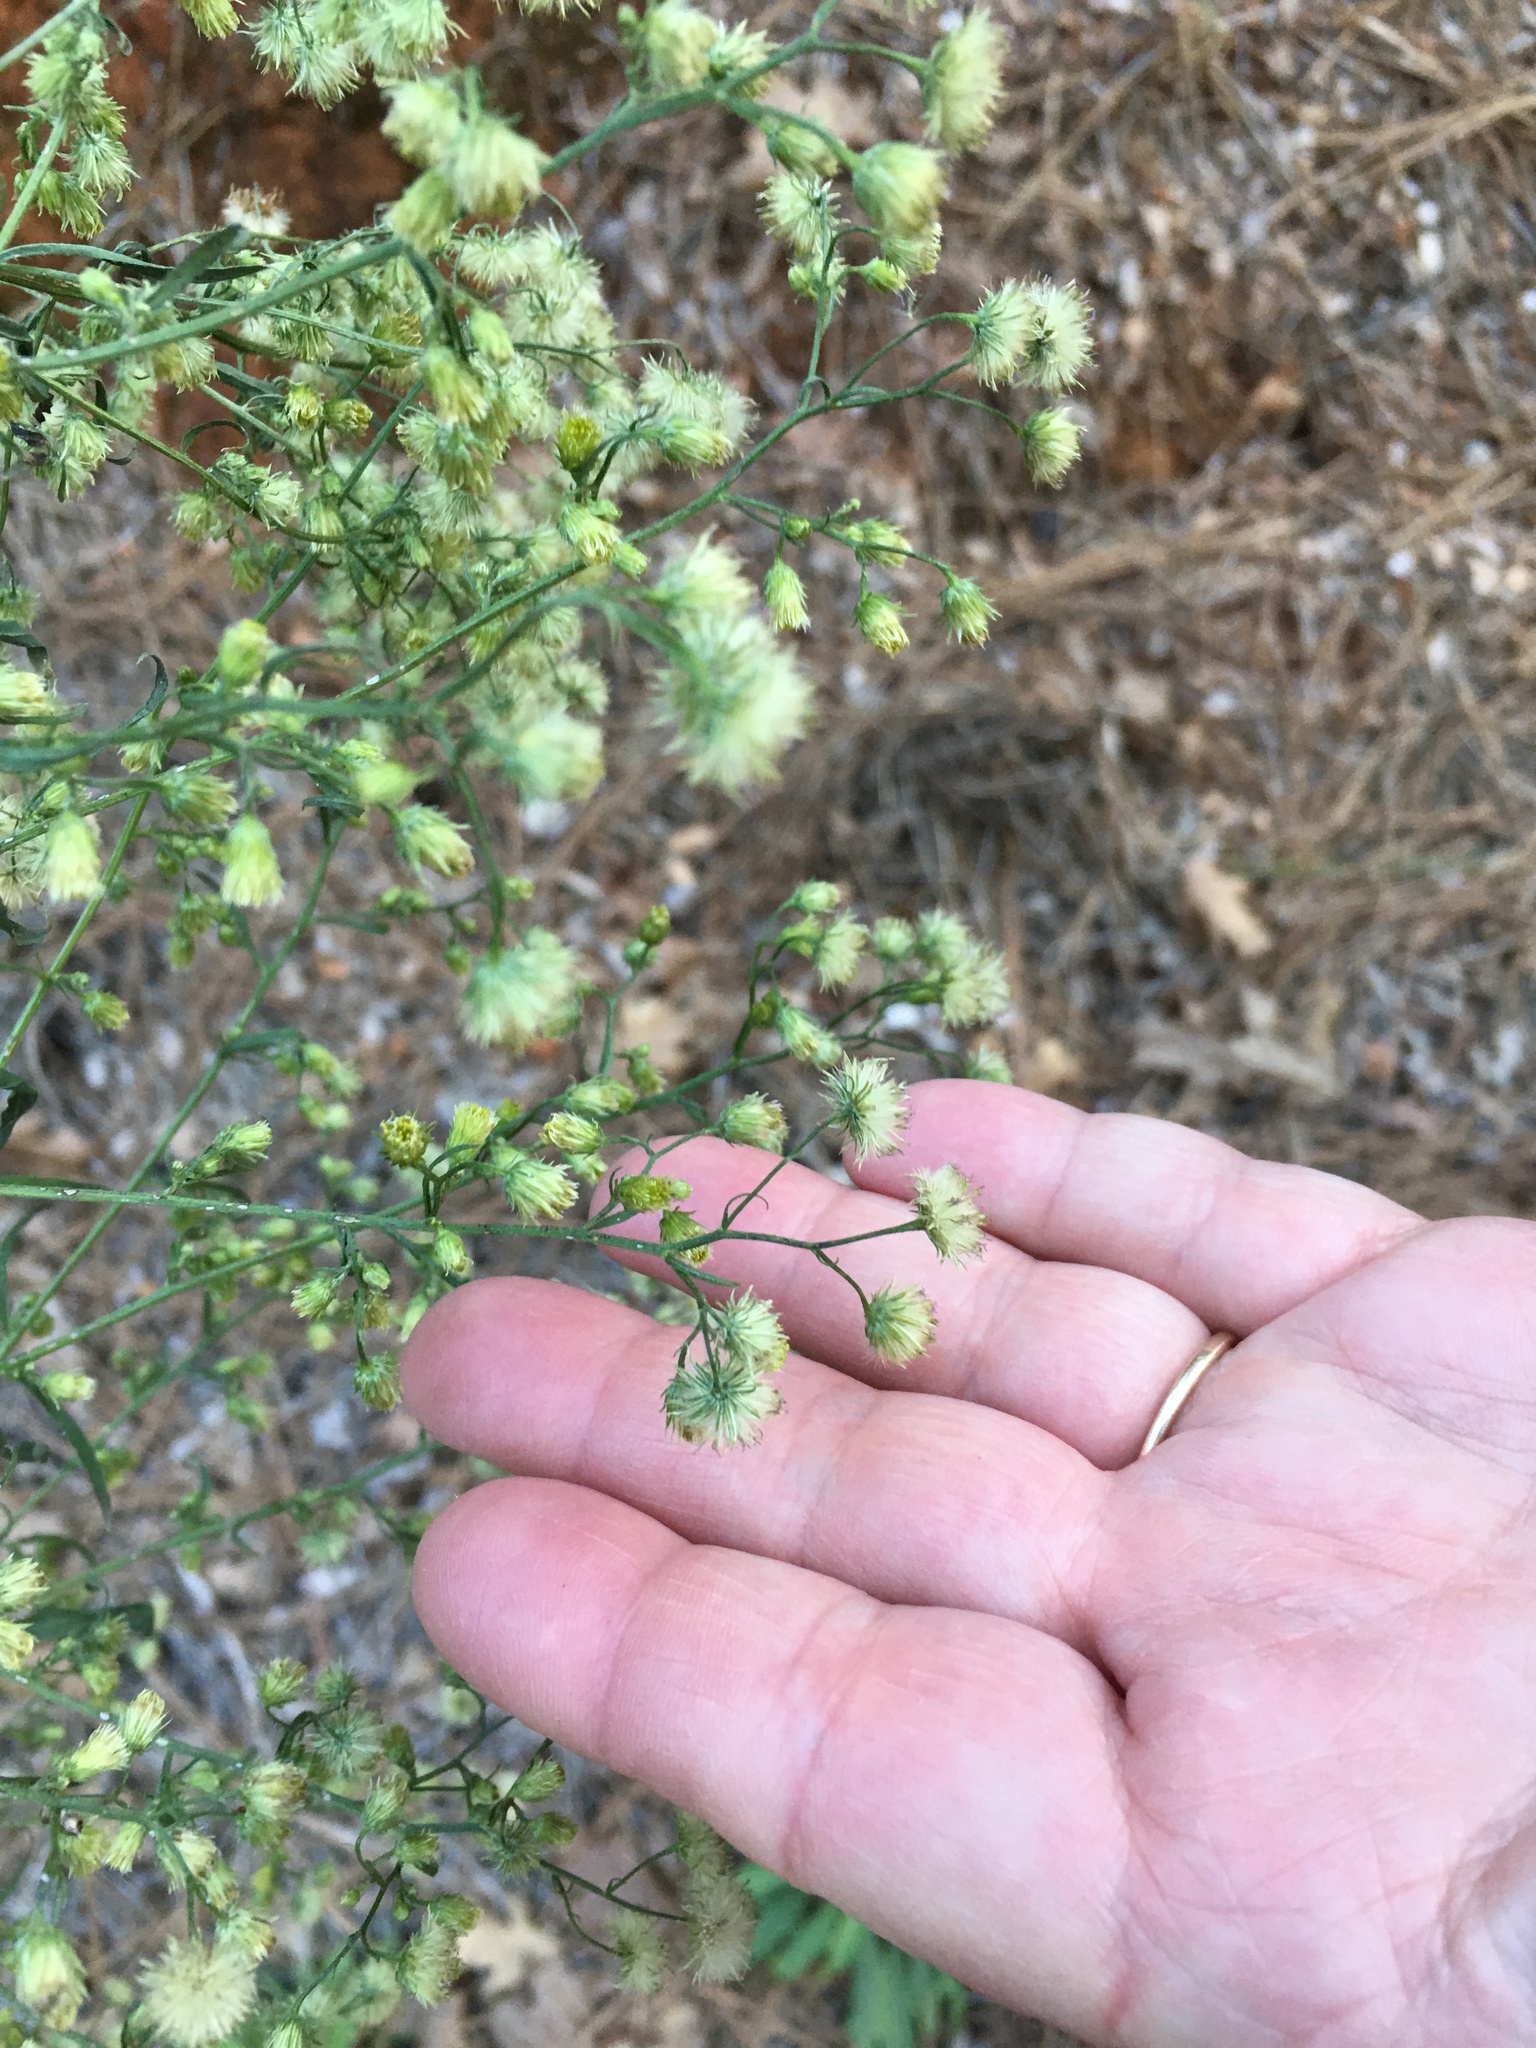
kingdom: Plantae
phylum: Tracheophyta
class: Magnoliopsida
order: Asterales
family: Asteraceae
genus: Erigeron
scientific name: Erigeron canadensis
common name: Canadian fleabane
